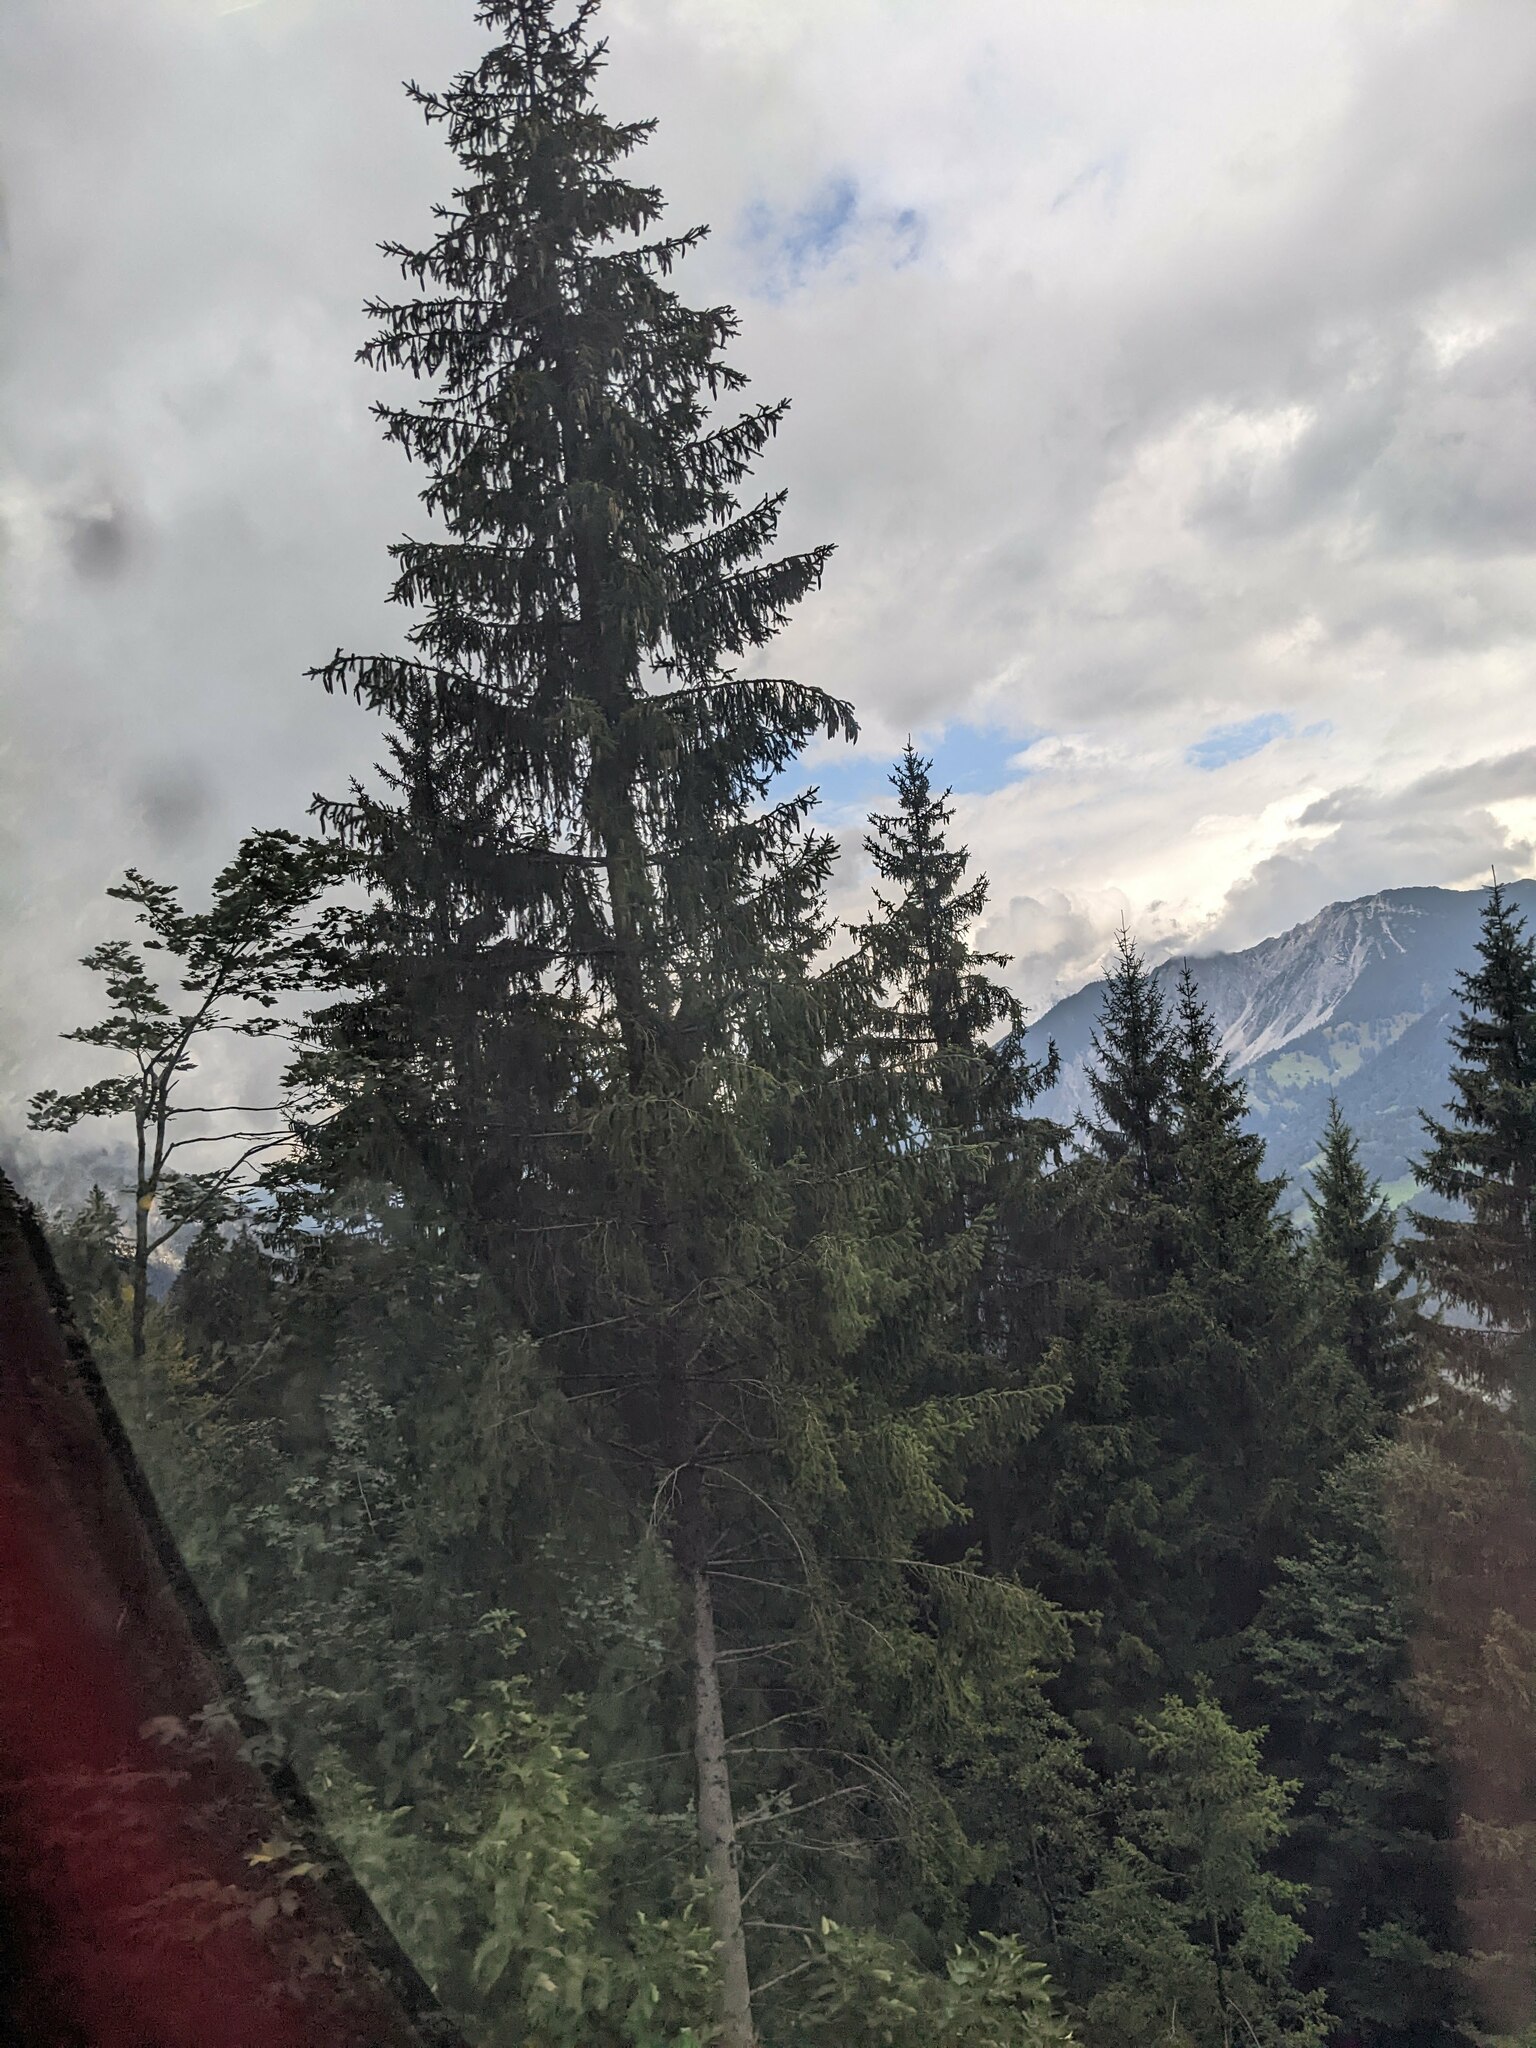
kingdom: Plantae
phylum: Tracheophyta
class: Pinopsida
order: Pinales
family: Pinaceae
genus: Picea
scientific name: Picea abies
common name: Norway spruce
